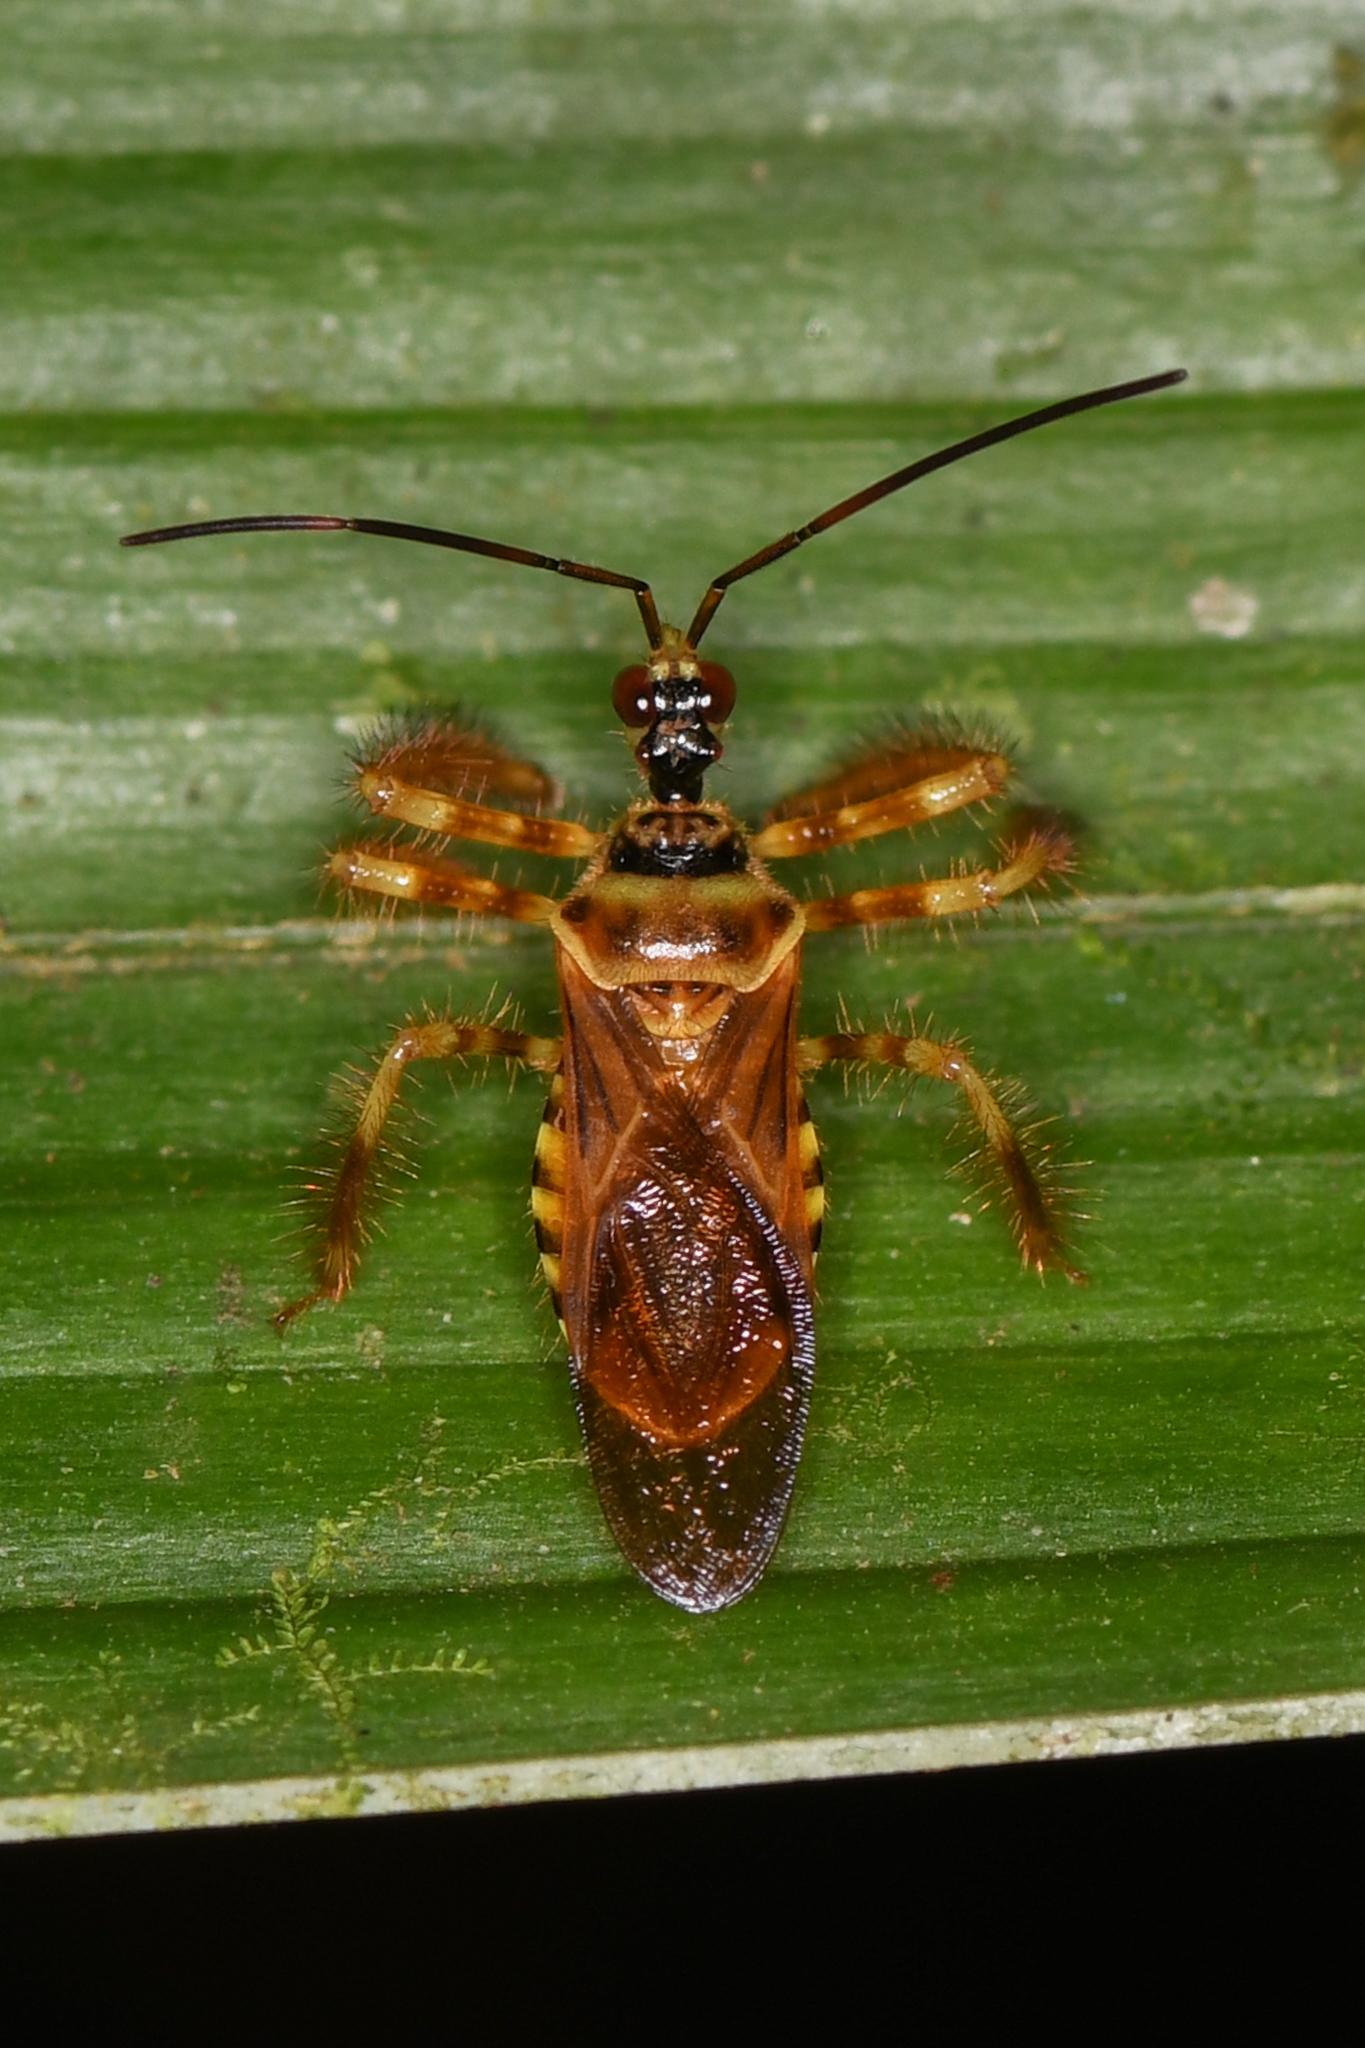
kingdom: Animalia
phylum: Arthropoda
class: Insecta
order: Hemiptera
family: Reduviidae
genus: Agriocoris
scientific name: Agriocoris flavipes
